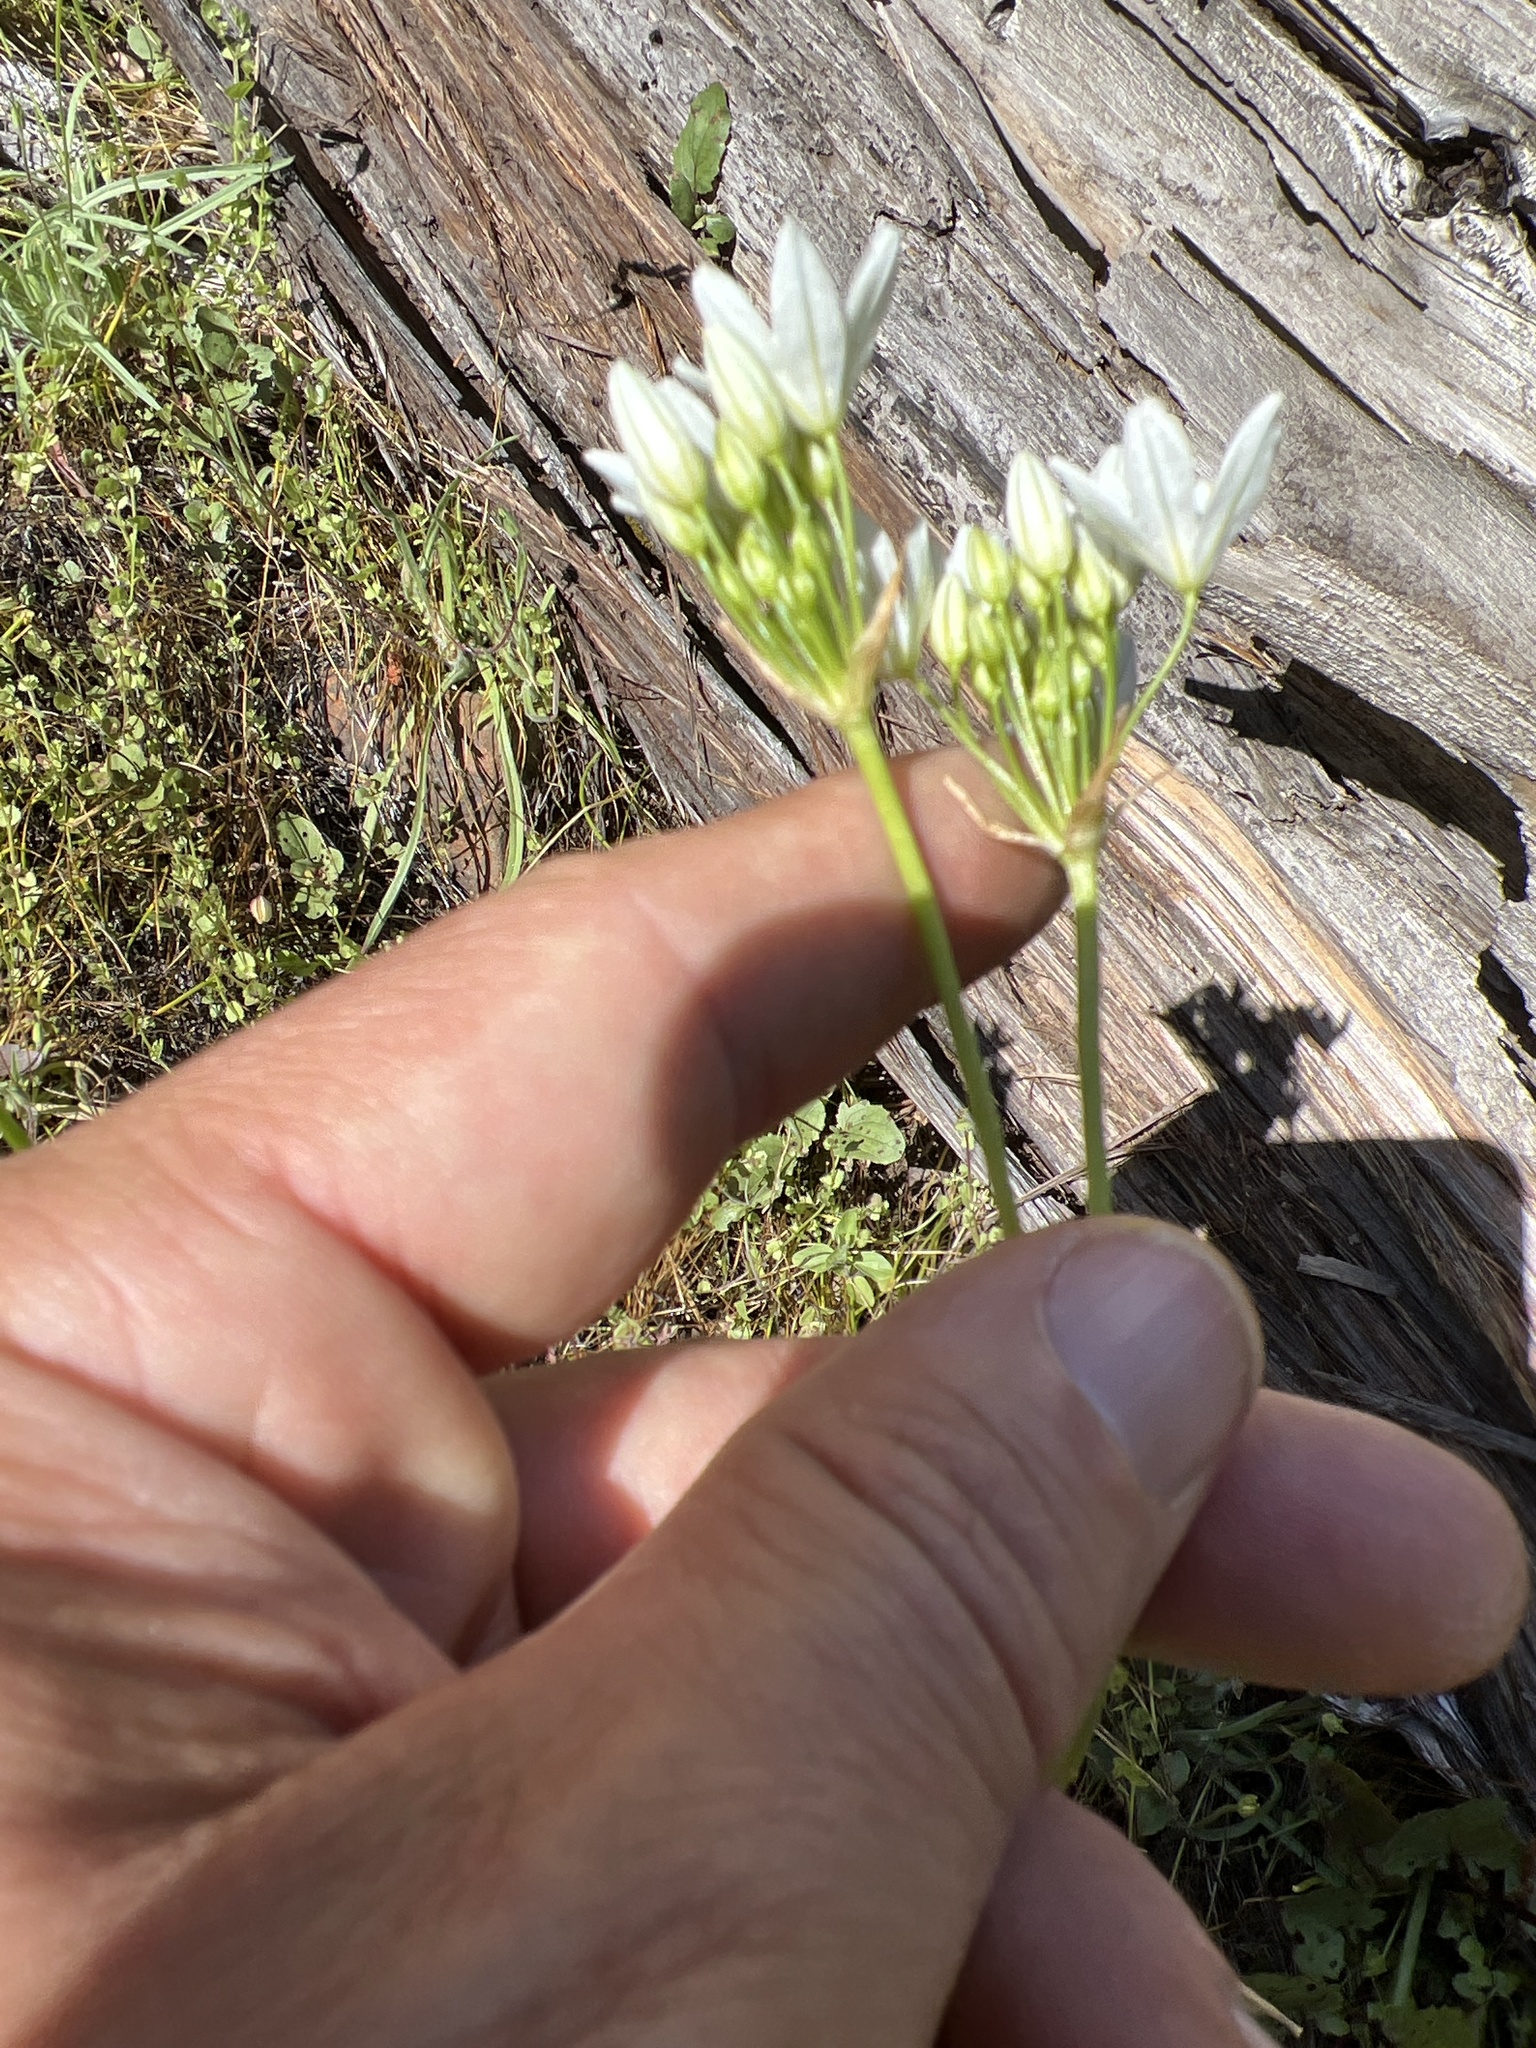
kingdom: Plantae
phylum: Tracheophyta
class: Liliopsida
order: Asparagales
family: Asparagaceae
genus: Triteleia
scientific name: Triteleia hyacinthina
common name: White brodiaea
